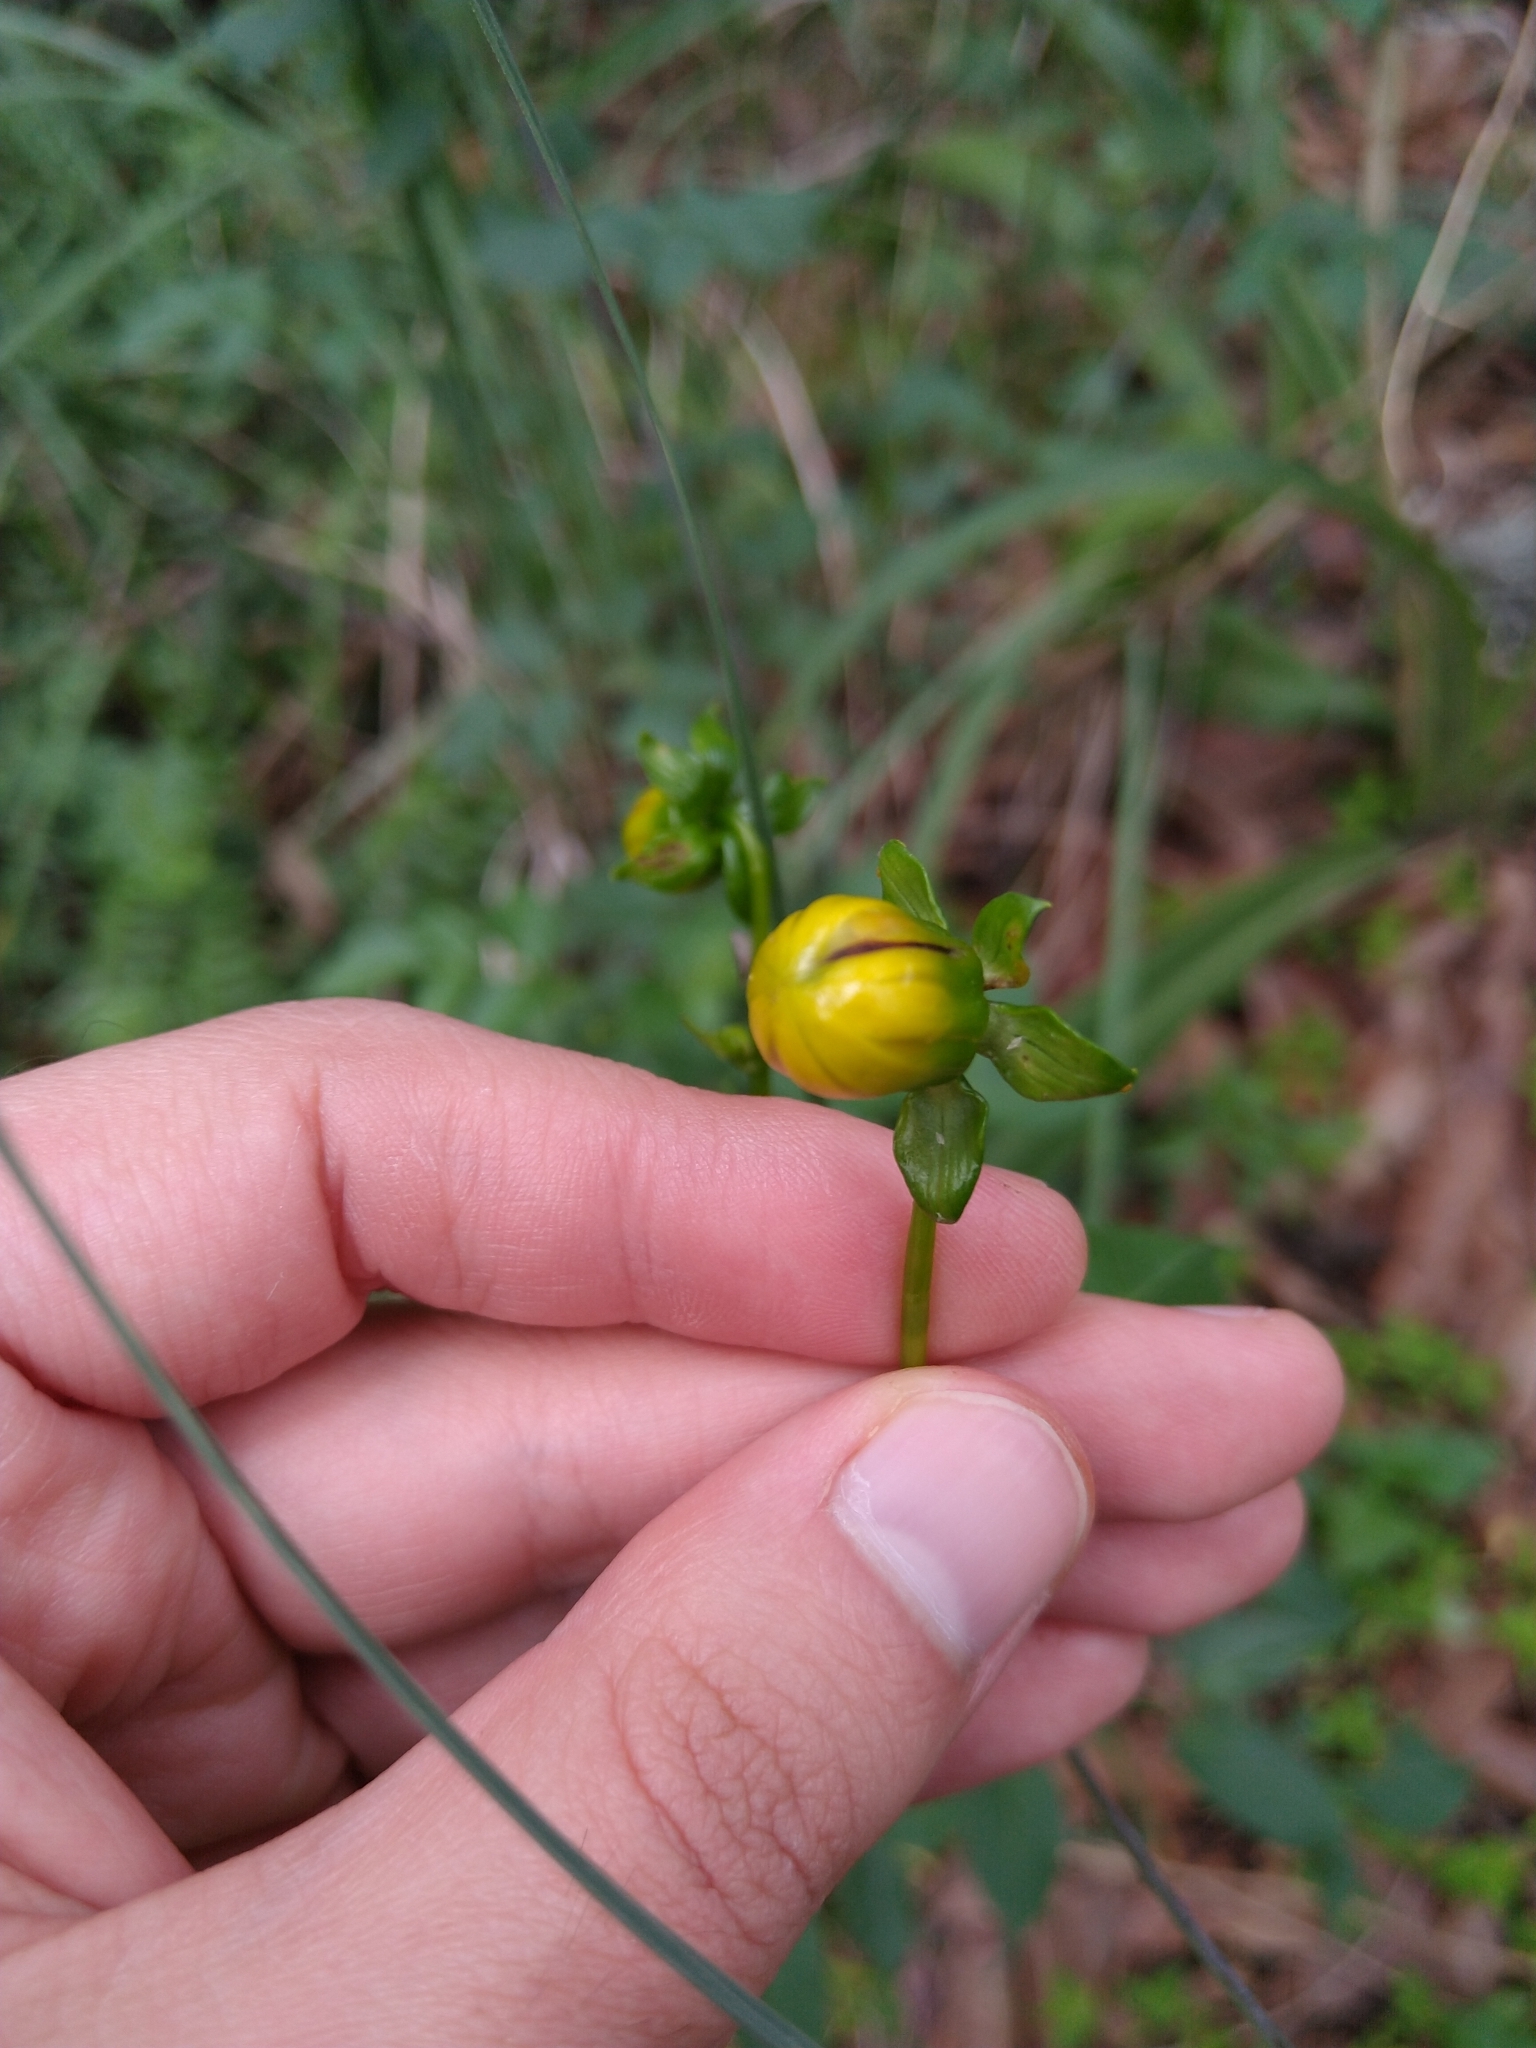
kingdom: Plantae
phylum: Tracheophyta
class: Magnoliopsida
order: Asterales
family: Asteraceae
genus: Dahlia
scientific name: Dahlia coccinea
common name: Red dahlia
